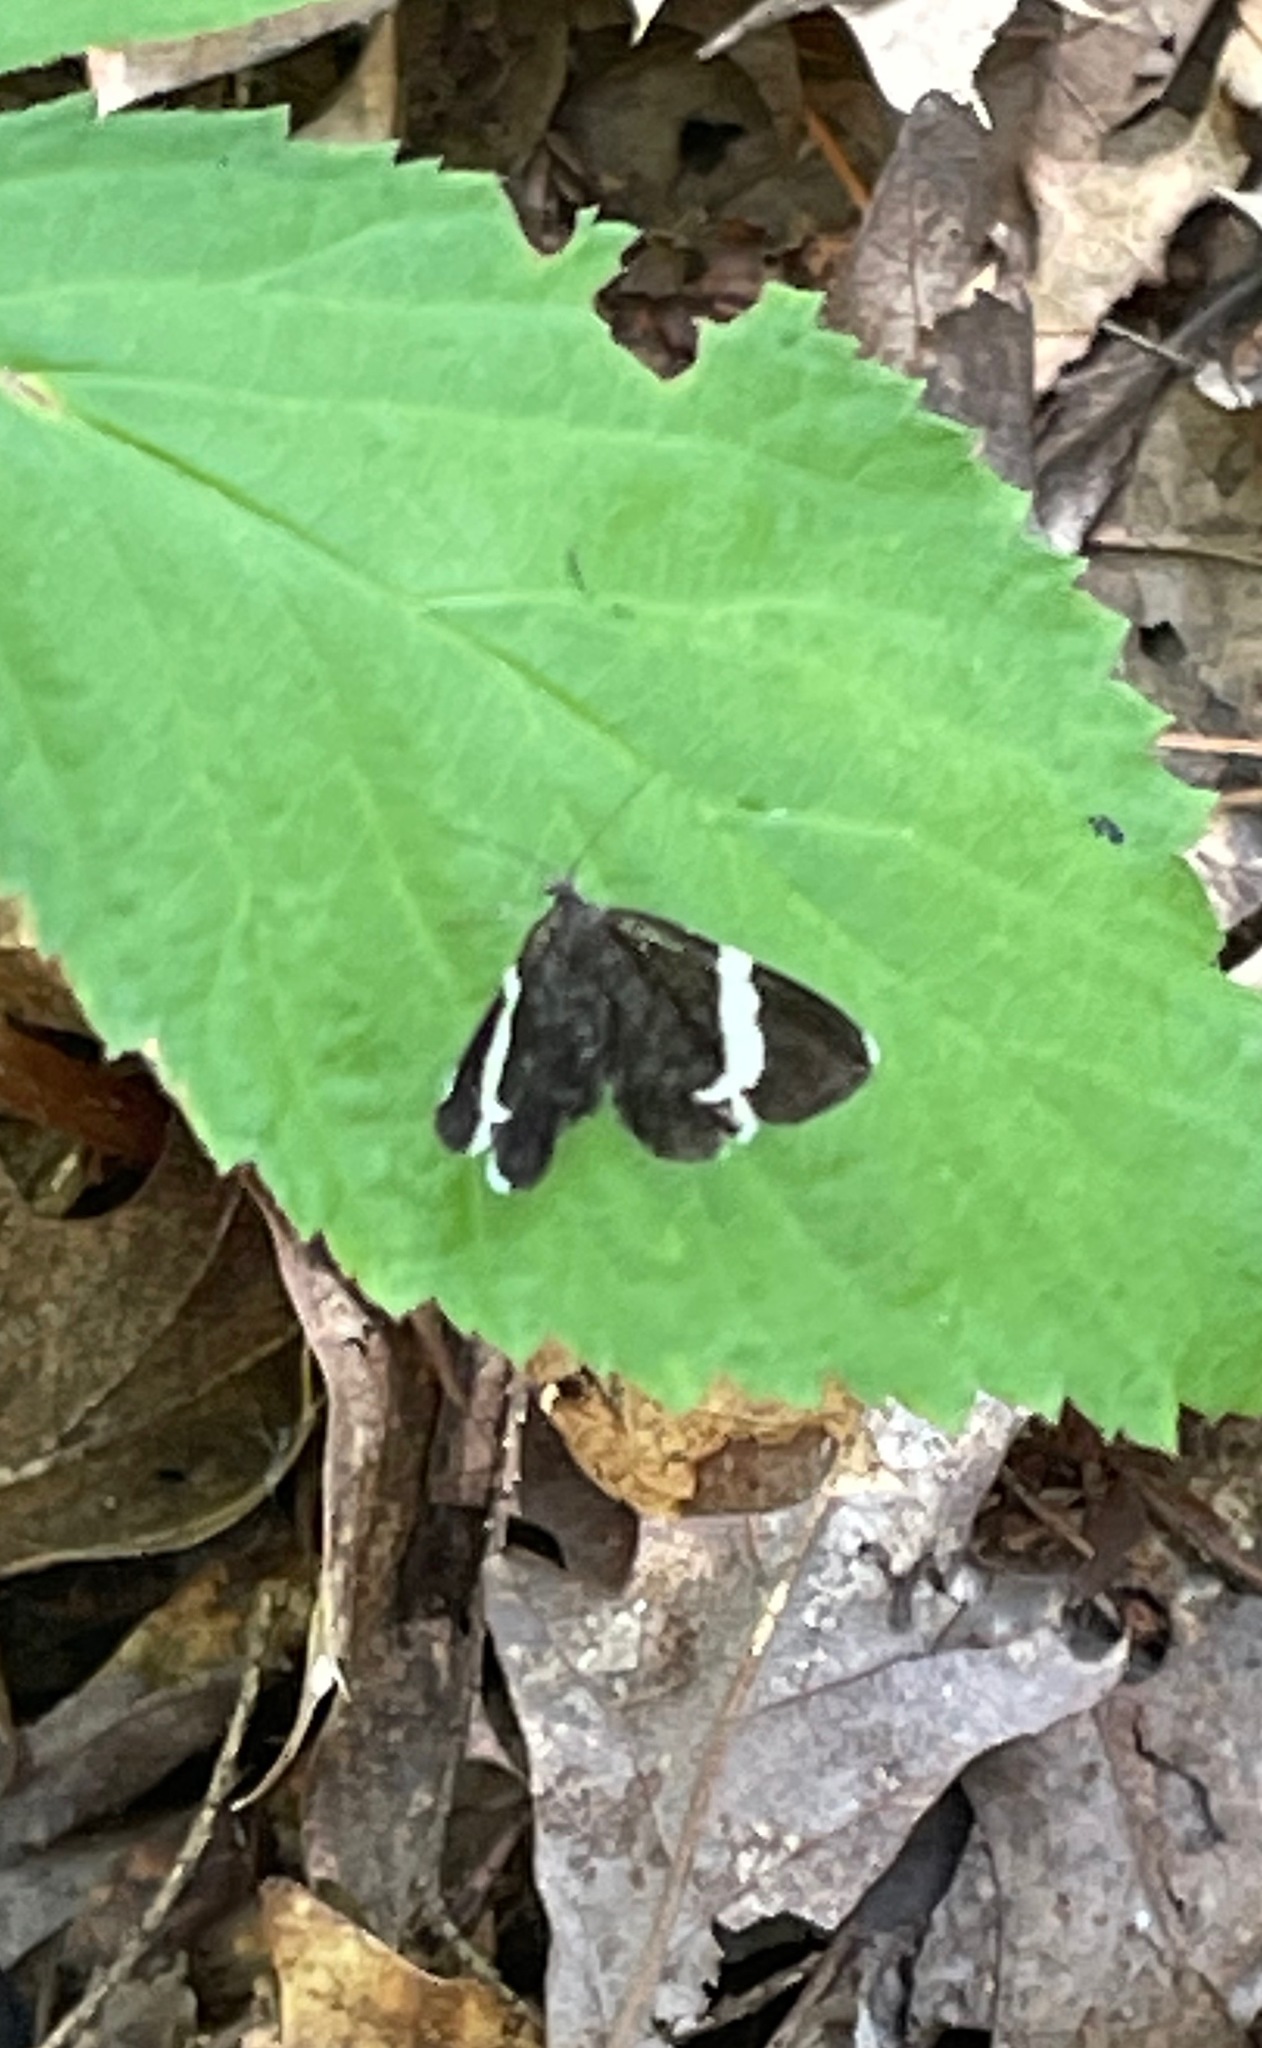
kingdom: Animalia
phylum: Arthropoda
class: Insecta
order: Lepidoptera
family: Geometridae
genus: Trichodezia
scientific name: Trichodezia albovittata
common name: White striped black
